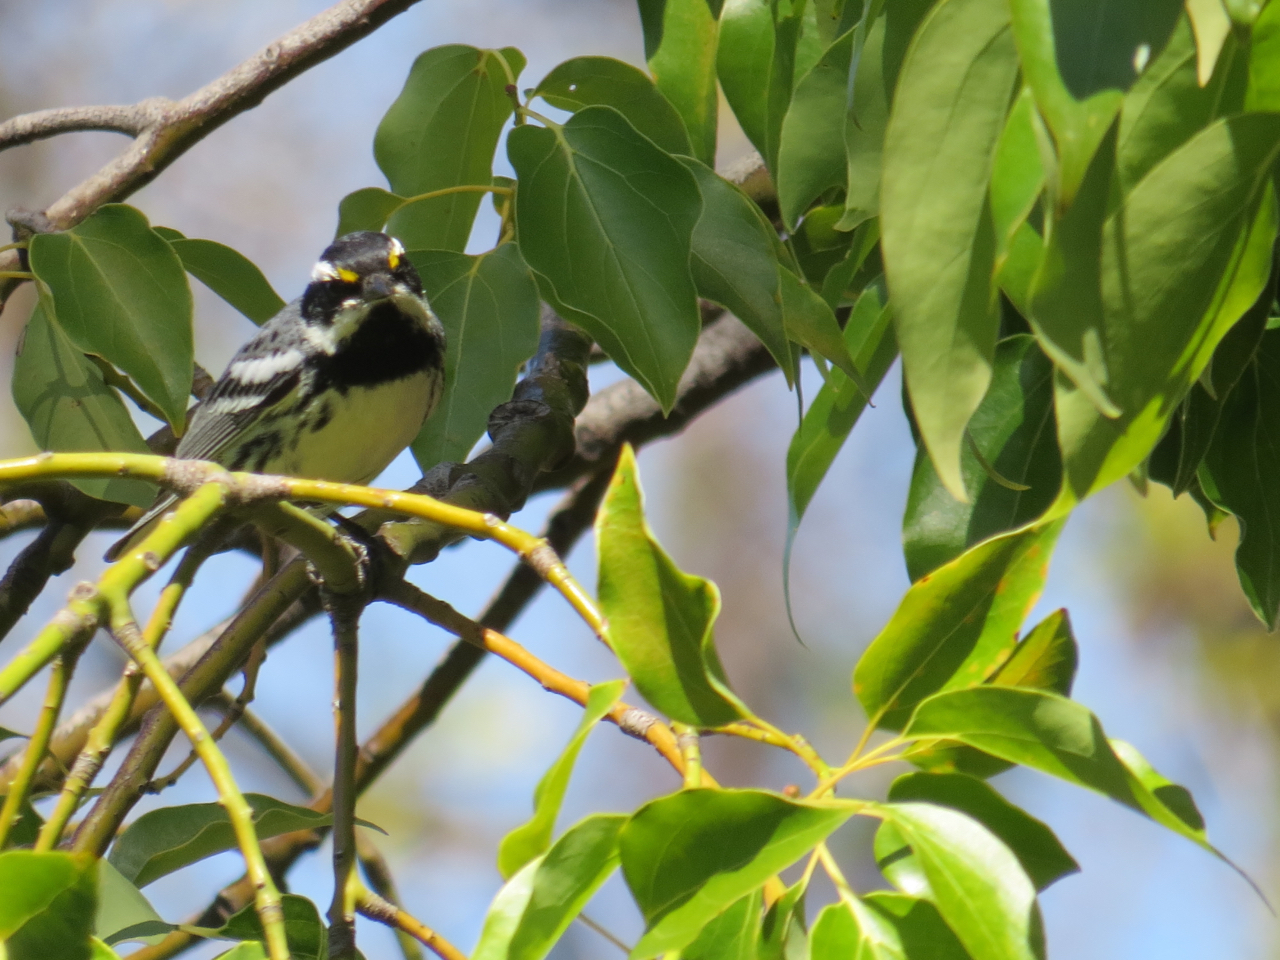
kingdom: Animalia
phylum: Chordata
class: Aves
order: Passeriformes
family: Parulidae
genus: Setophaga
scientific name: Setophaga nigrescens
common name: Black-throated gray warbler
